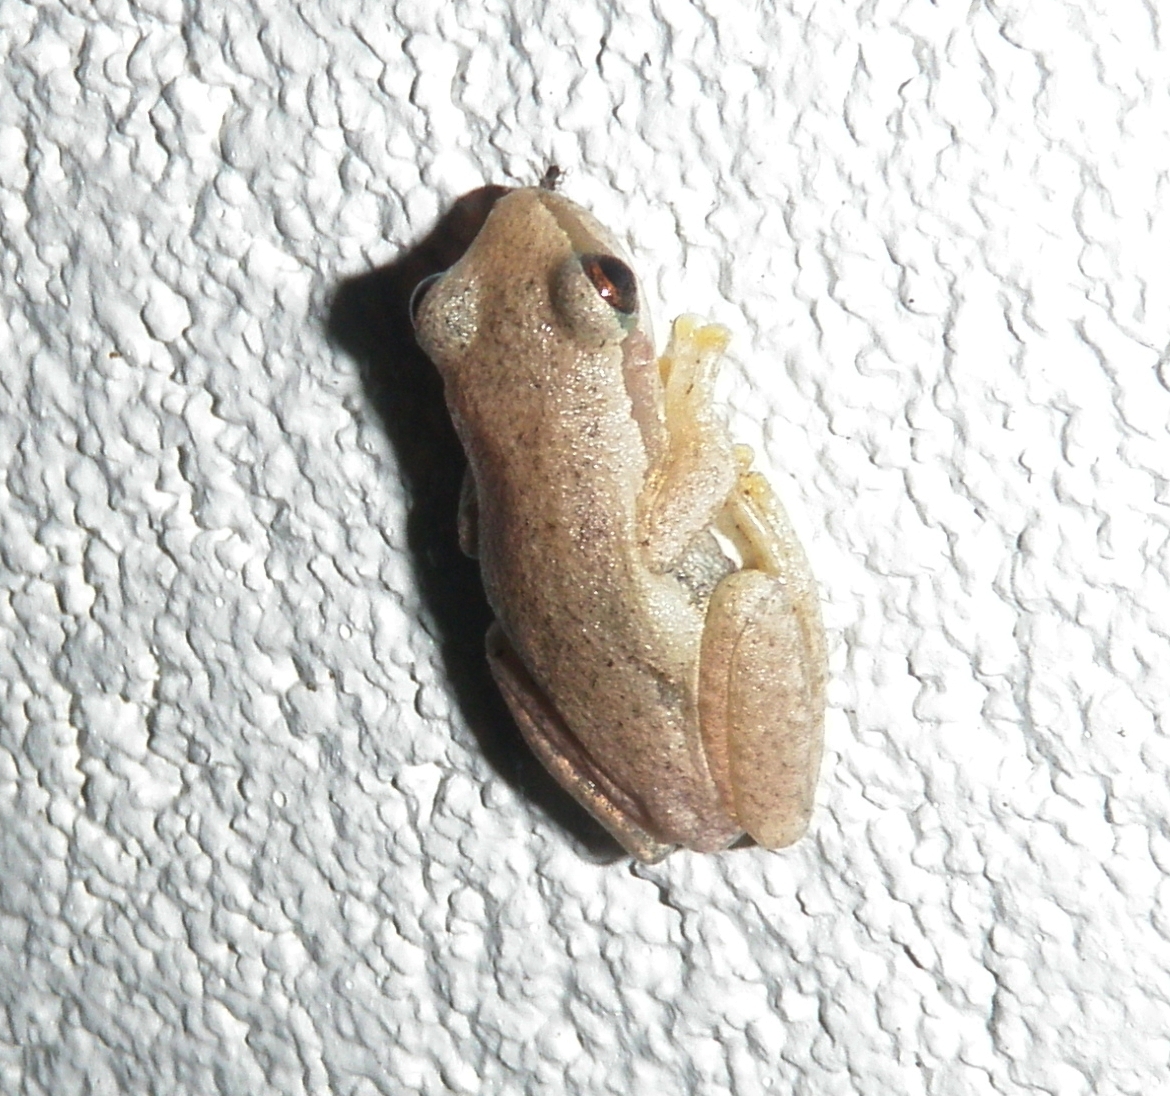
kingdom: Animalia
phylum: Chordata
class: Amphibia
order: Anura
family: Pelodryadidae
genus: Litoria
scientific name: Litoria rubella
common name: Desert tree frog
